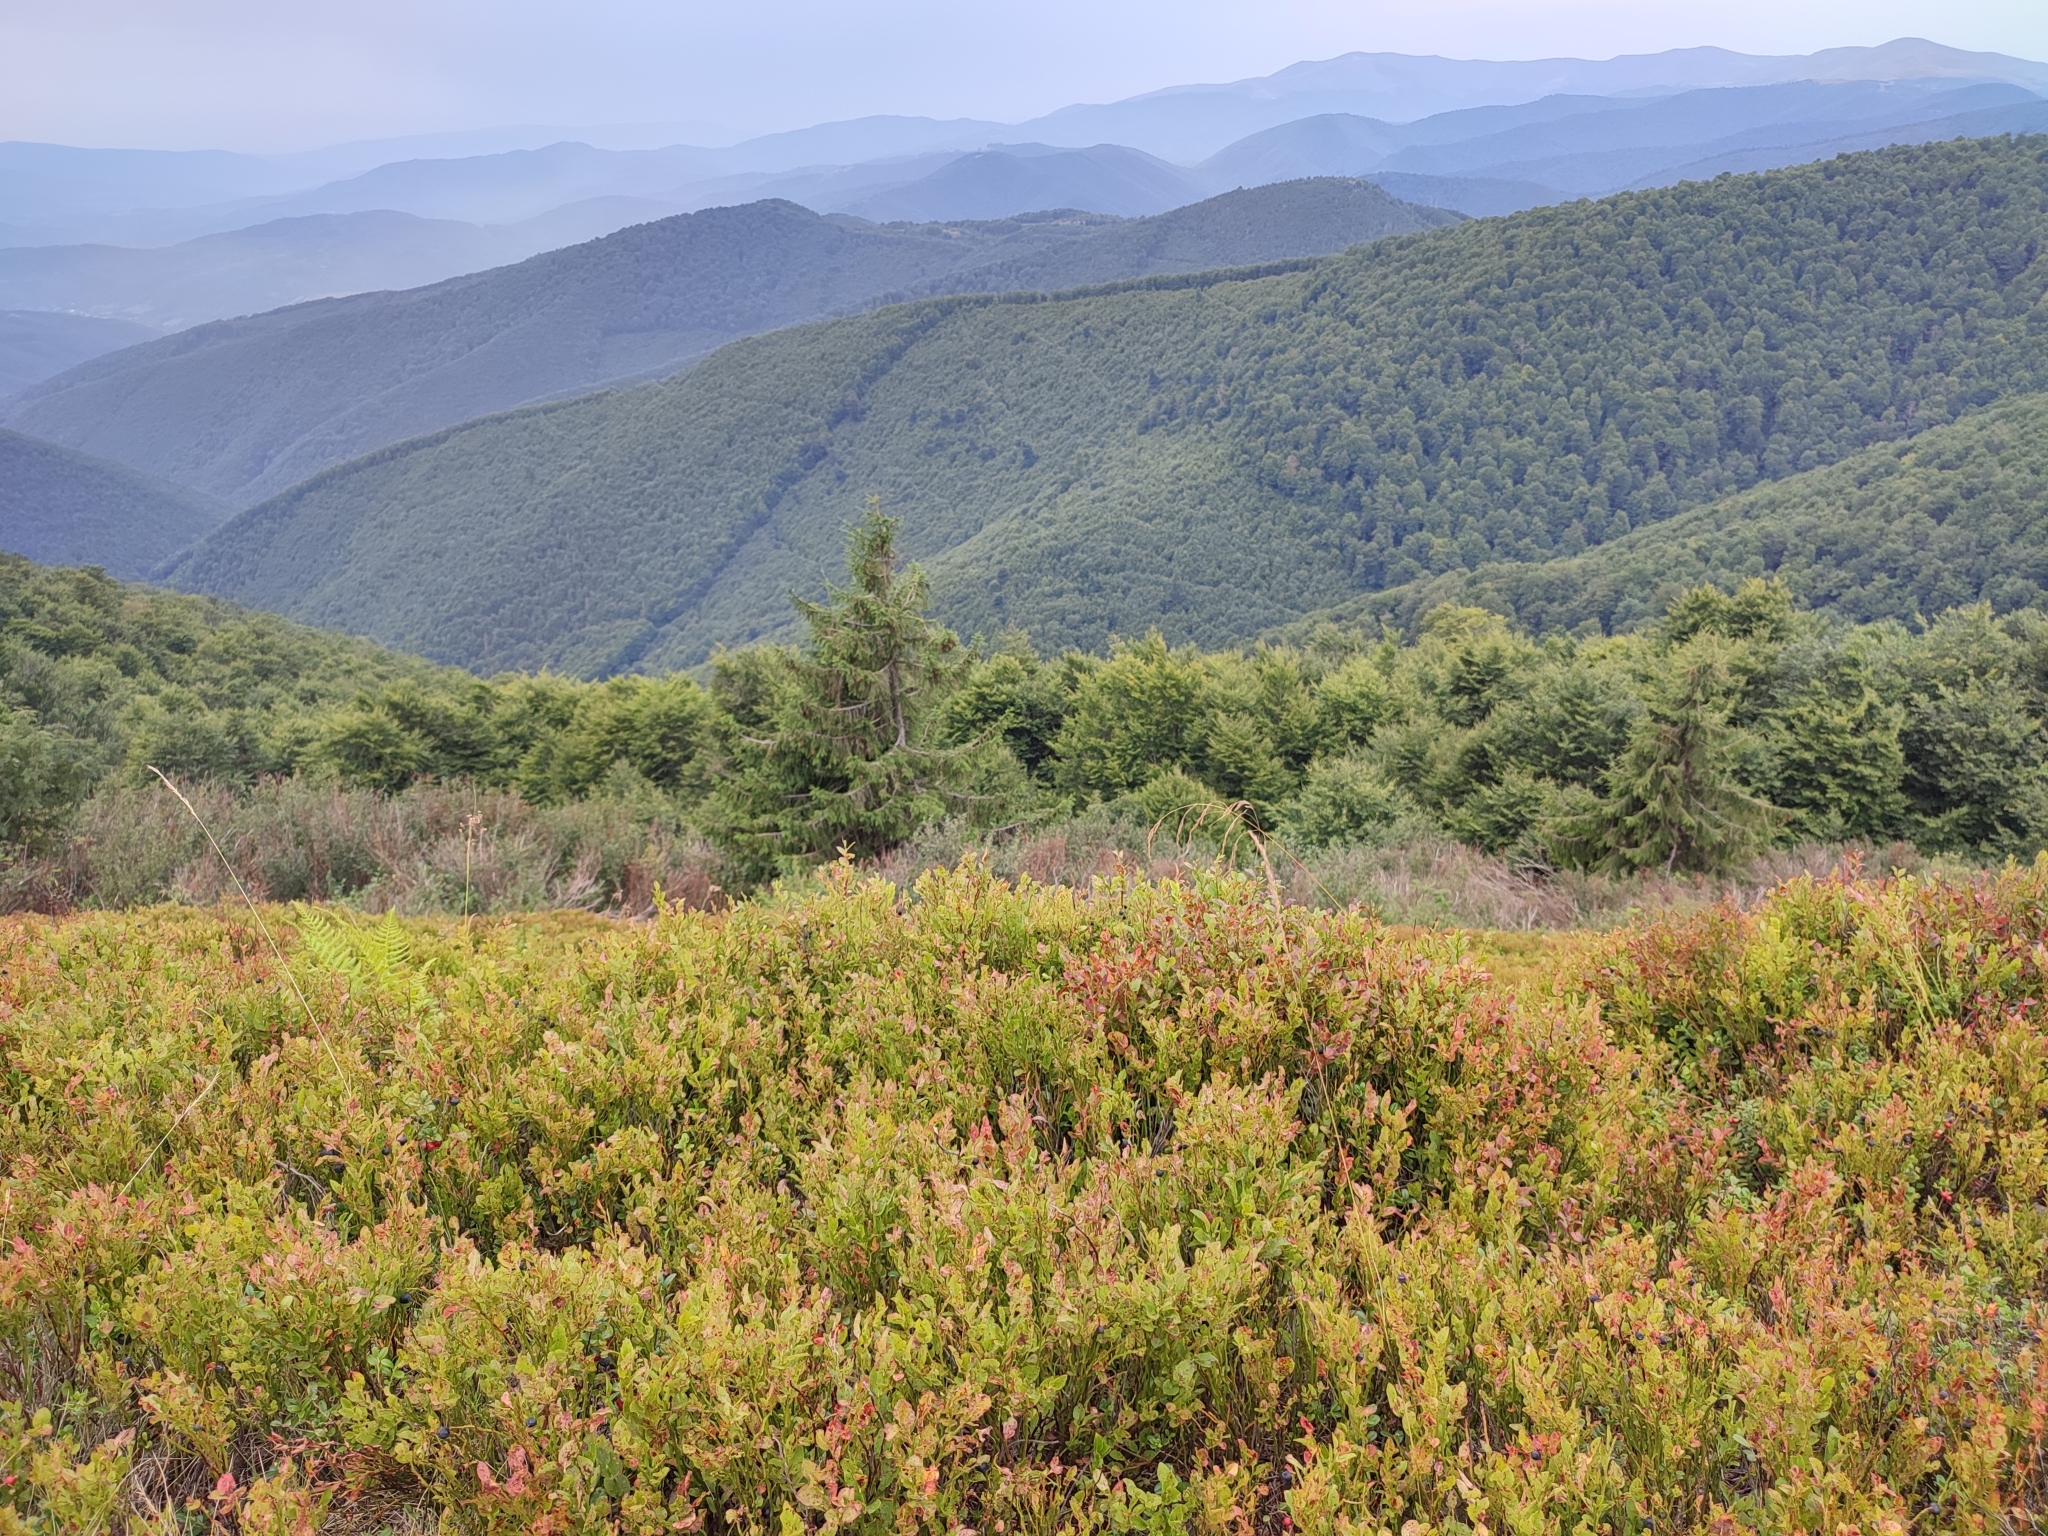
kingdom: Plantae
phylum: Tracheophyta
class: Magnoliopsida
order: Ericales
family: Ericaceae
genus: Vaccinium
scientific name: Vaccinium myrtillus
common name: Bilberry
